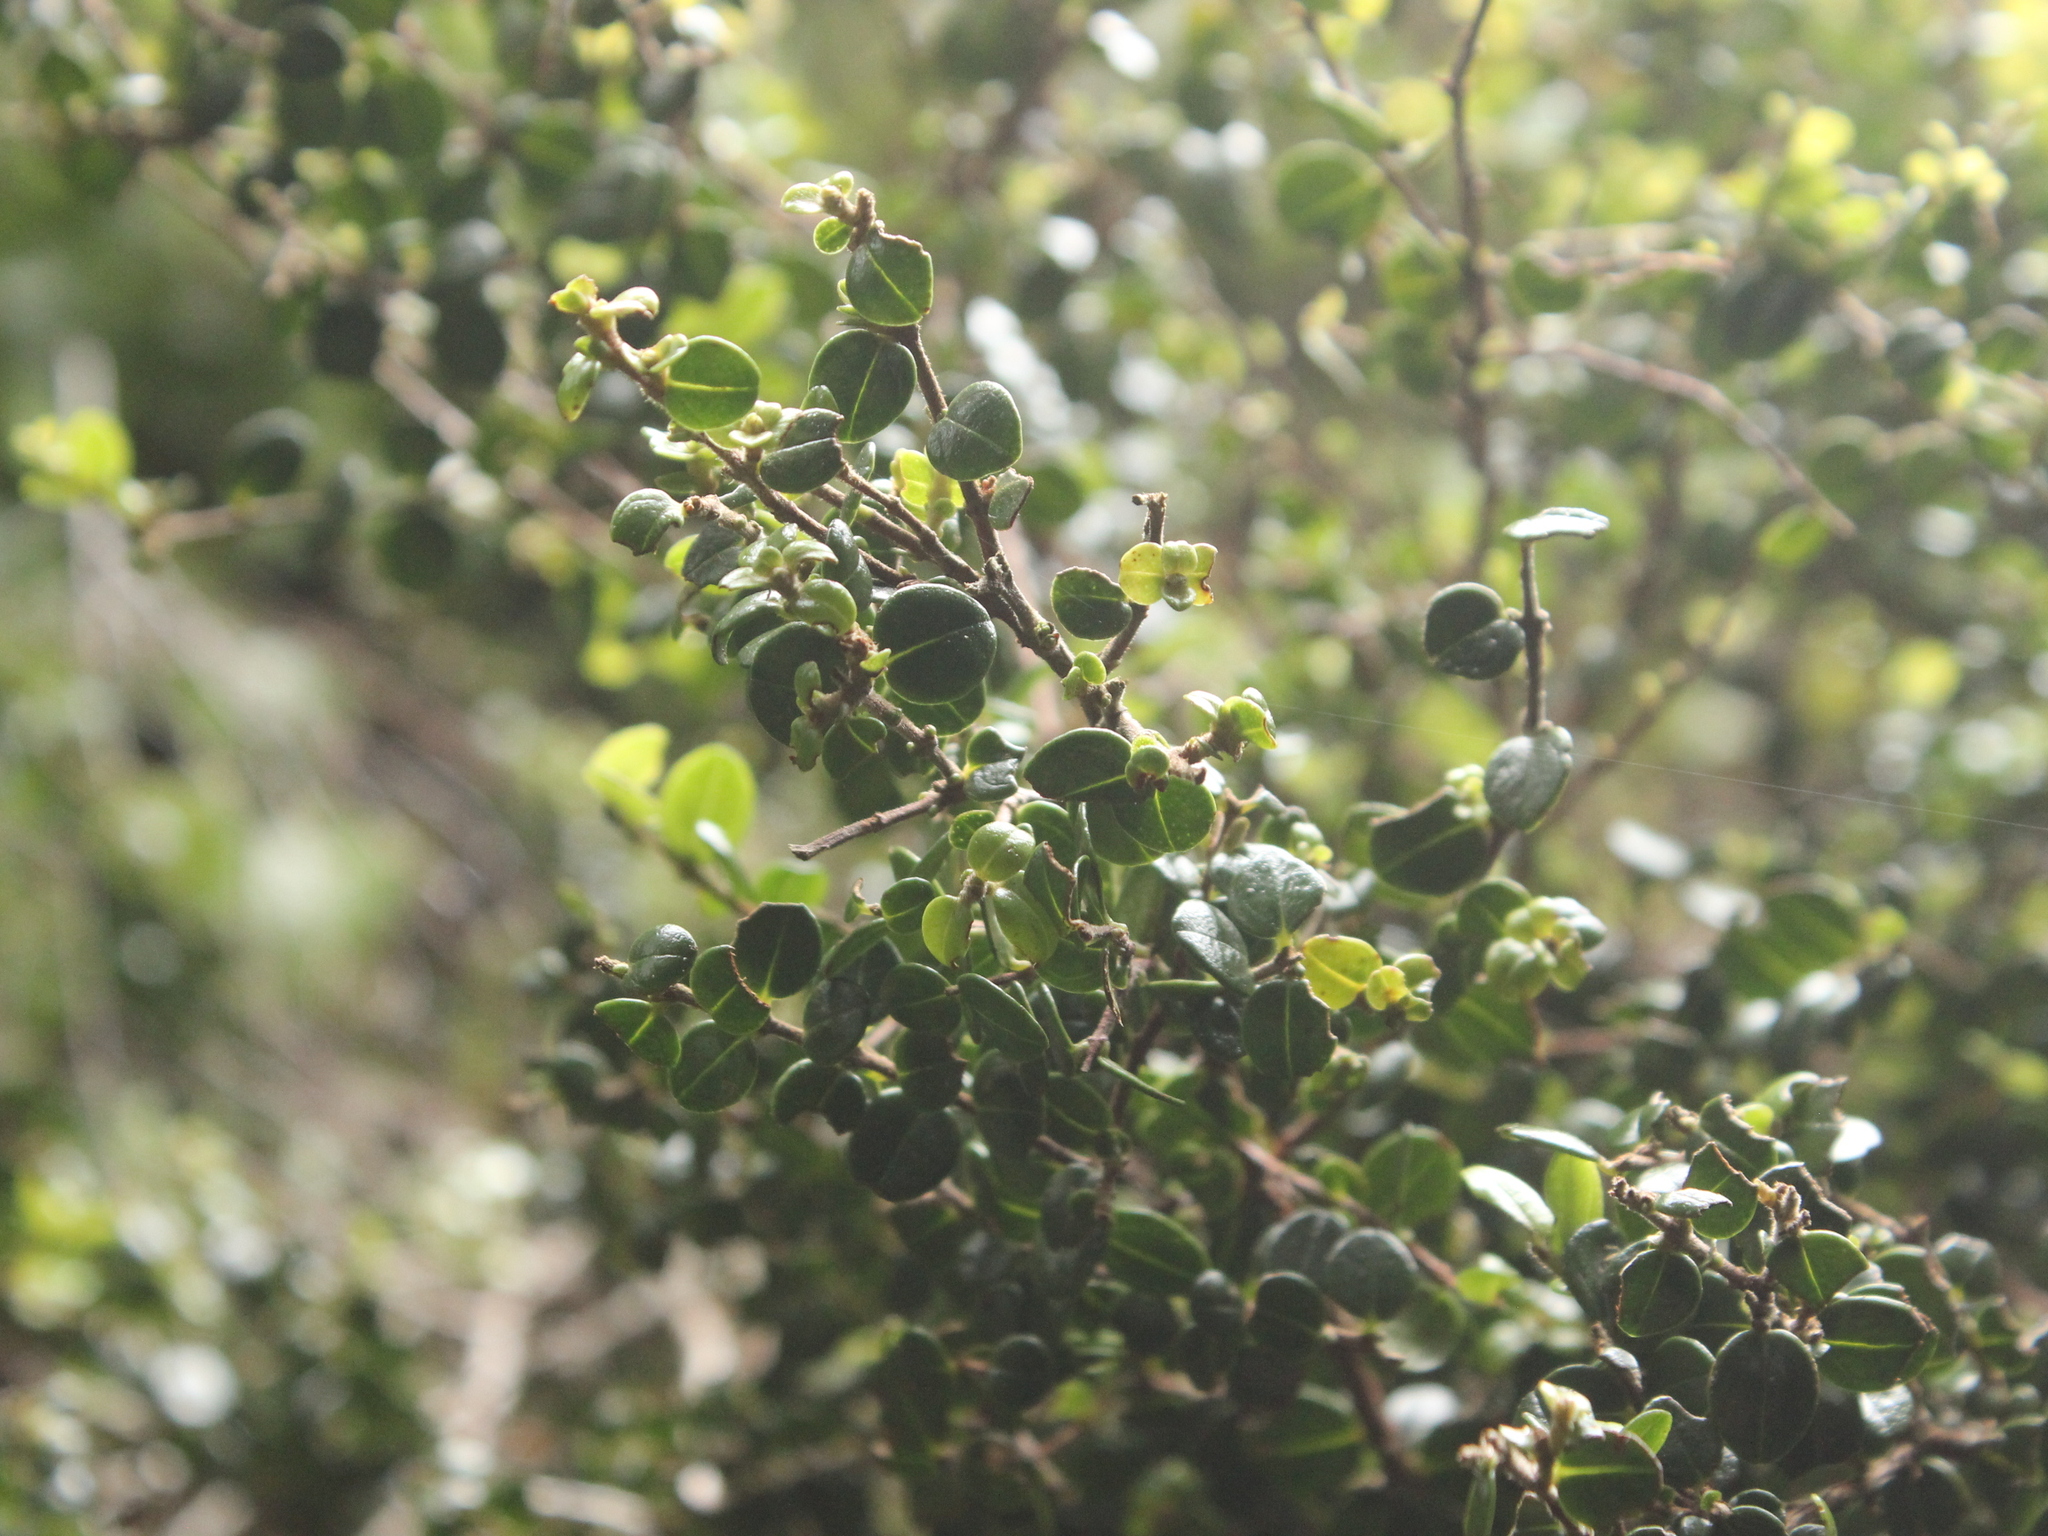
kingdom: Plantae
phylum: Tracheophyta
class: Magnoliopsida
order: Myrtales
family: Myrtaceae
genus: Metrosideros
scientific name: Metrosideros perforata
